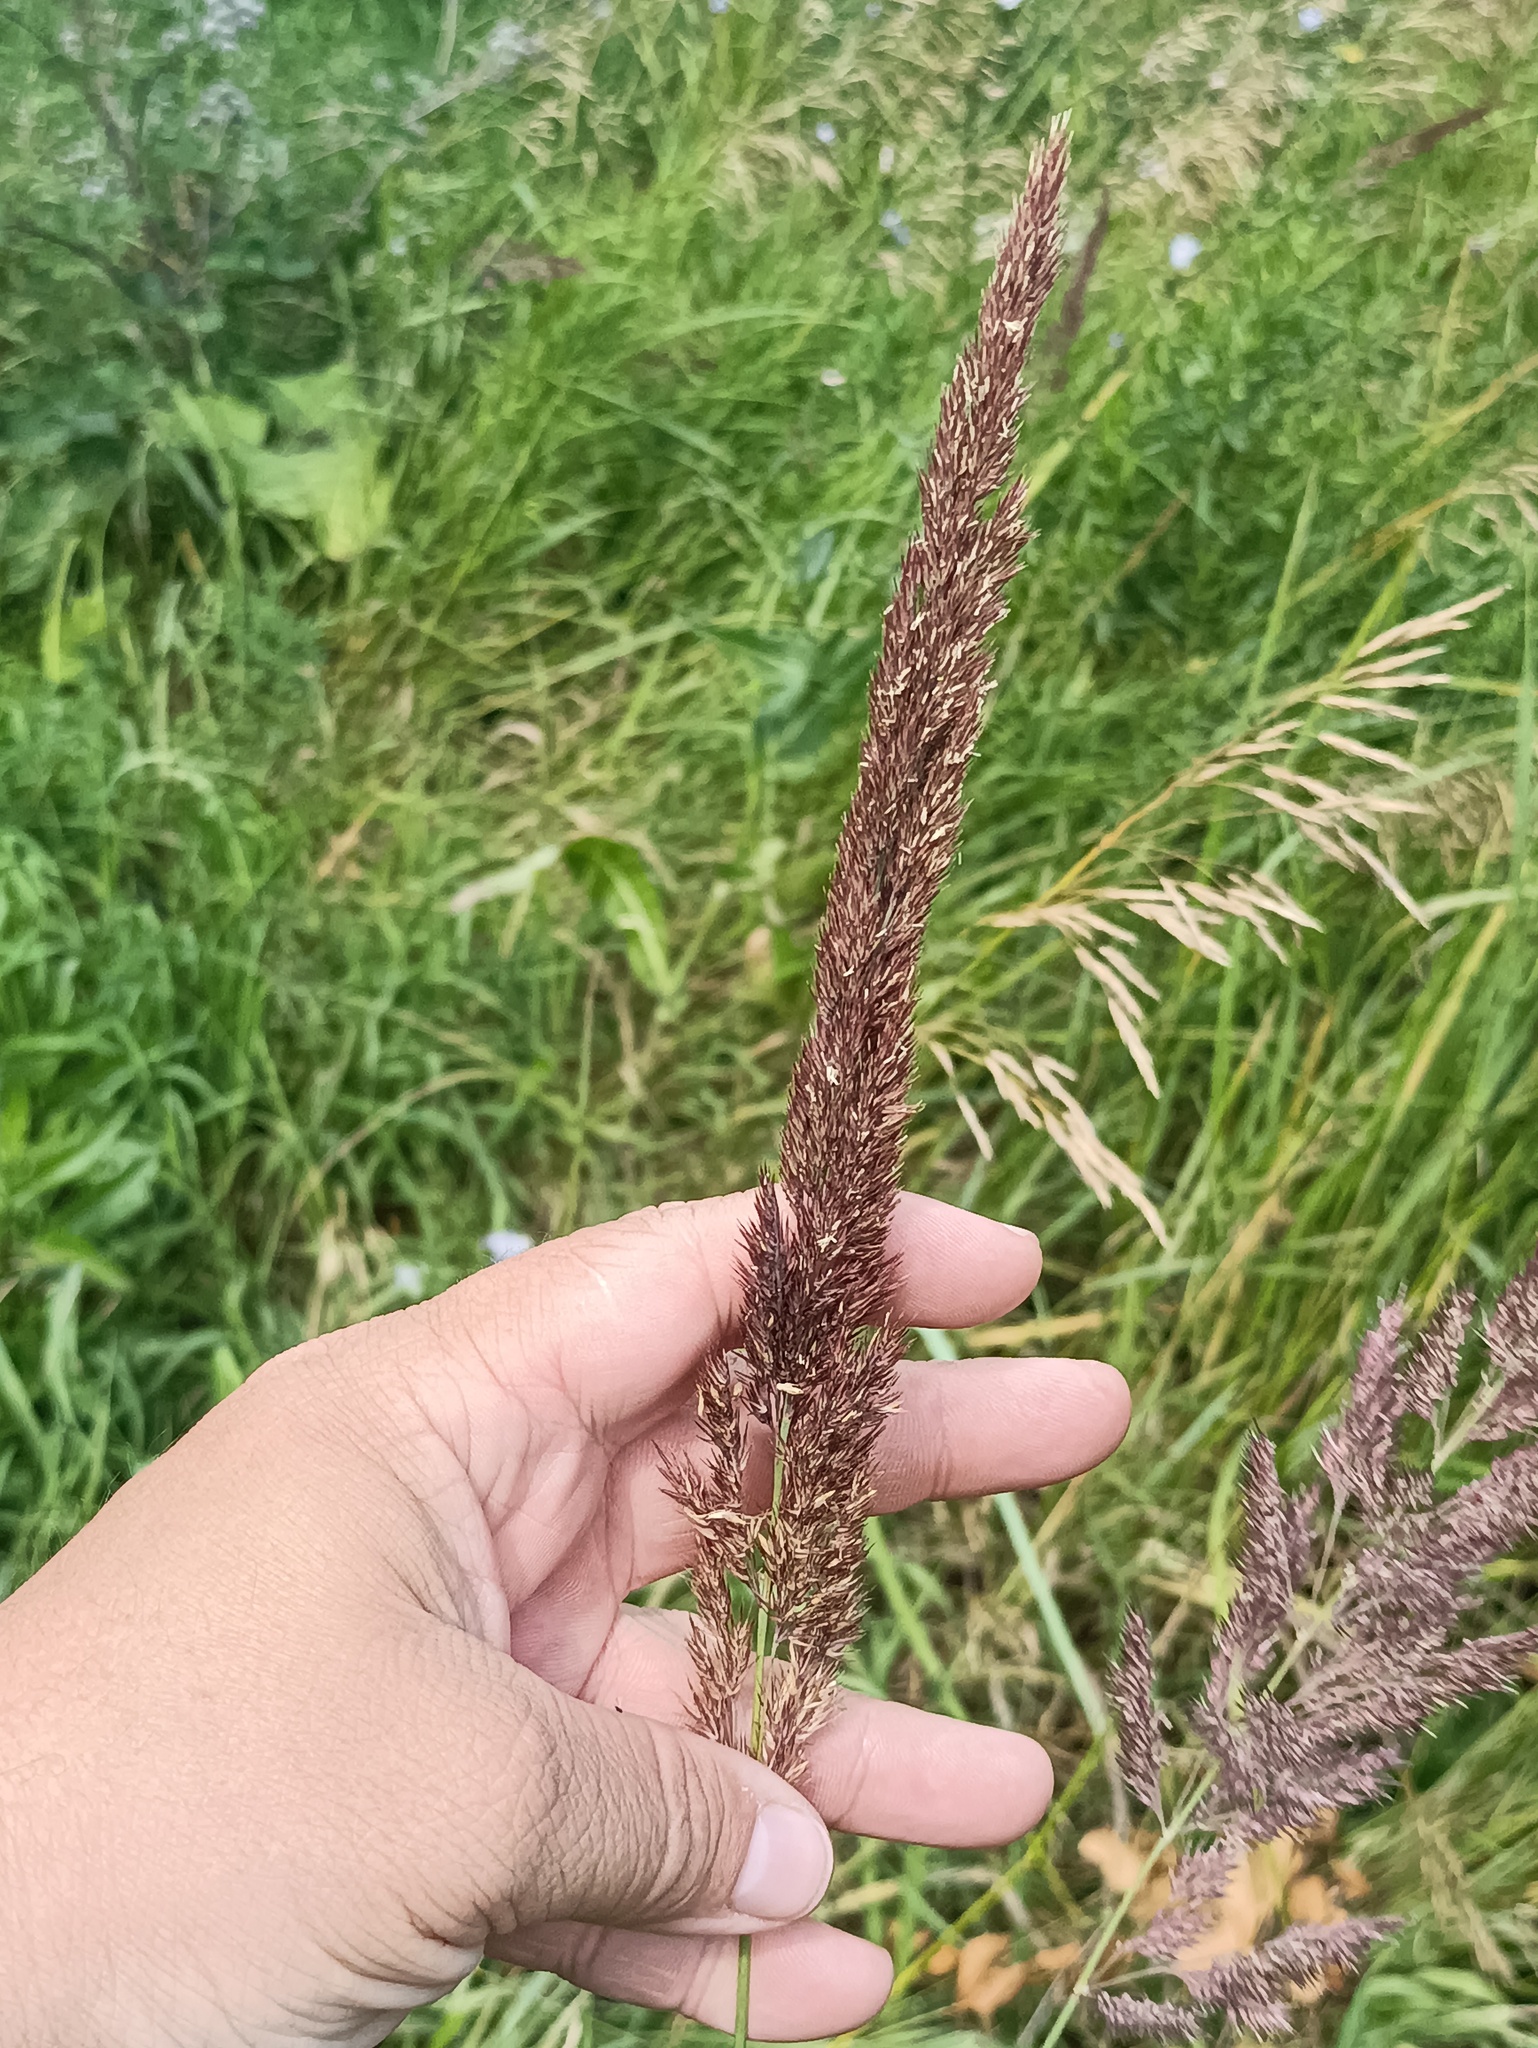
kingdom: Plantae
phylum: Tracheophyta
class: Liliopsida
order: Poales
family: Poaceae
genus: Calamagrostis
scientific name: Calamagrostis epigejos
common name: Wood small-reed
